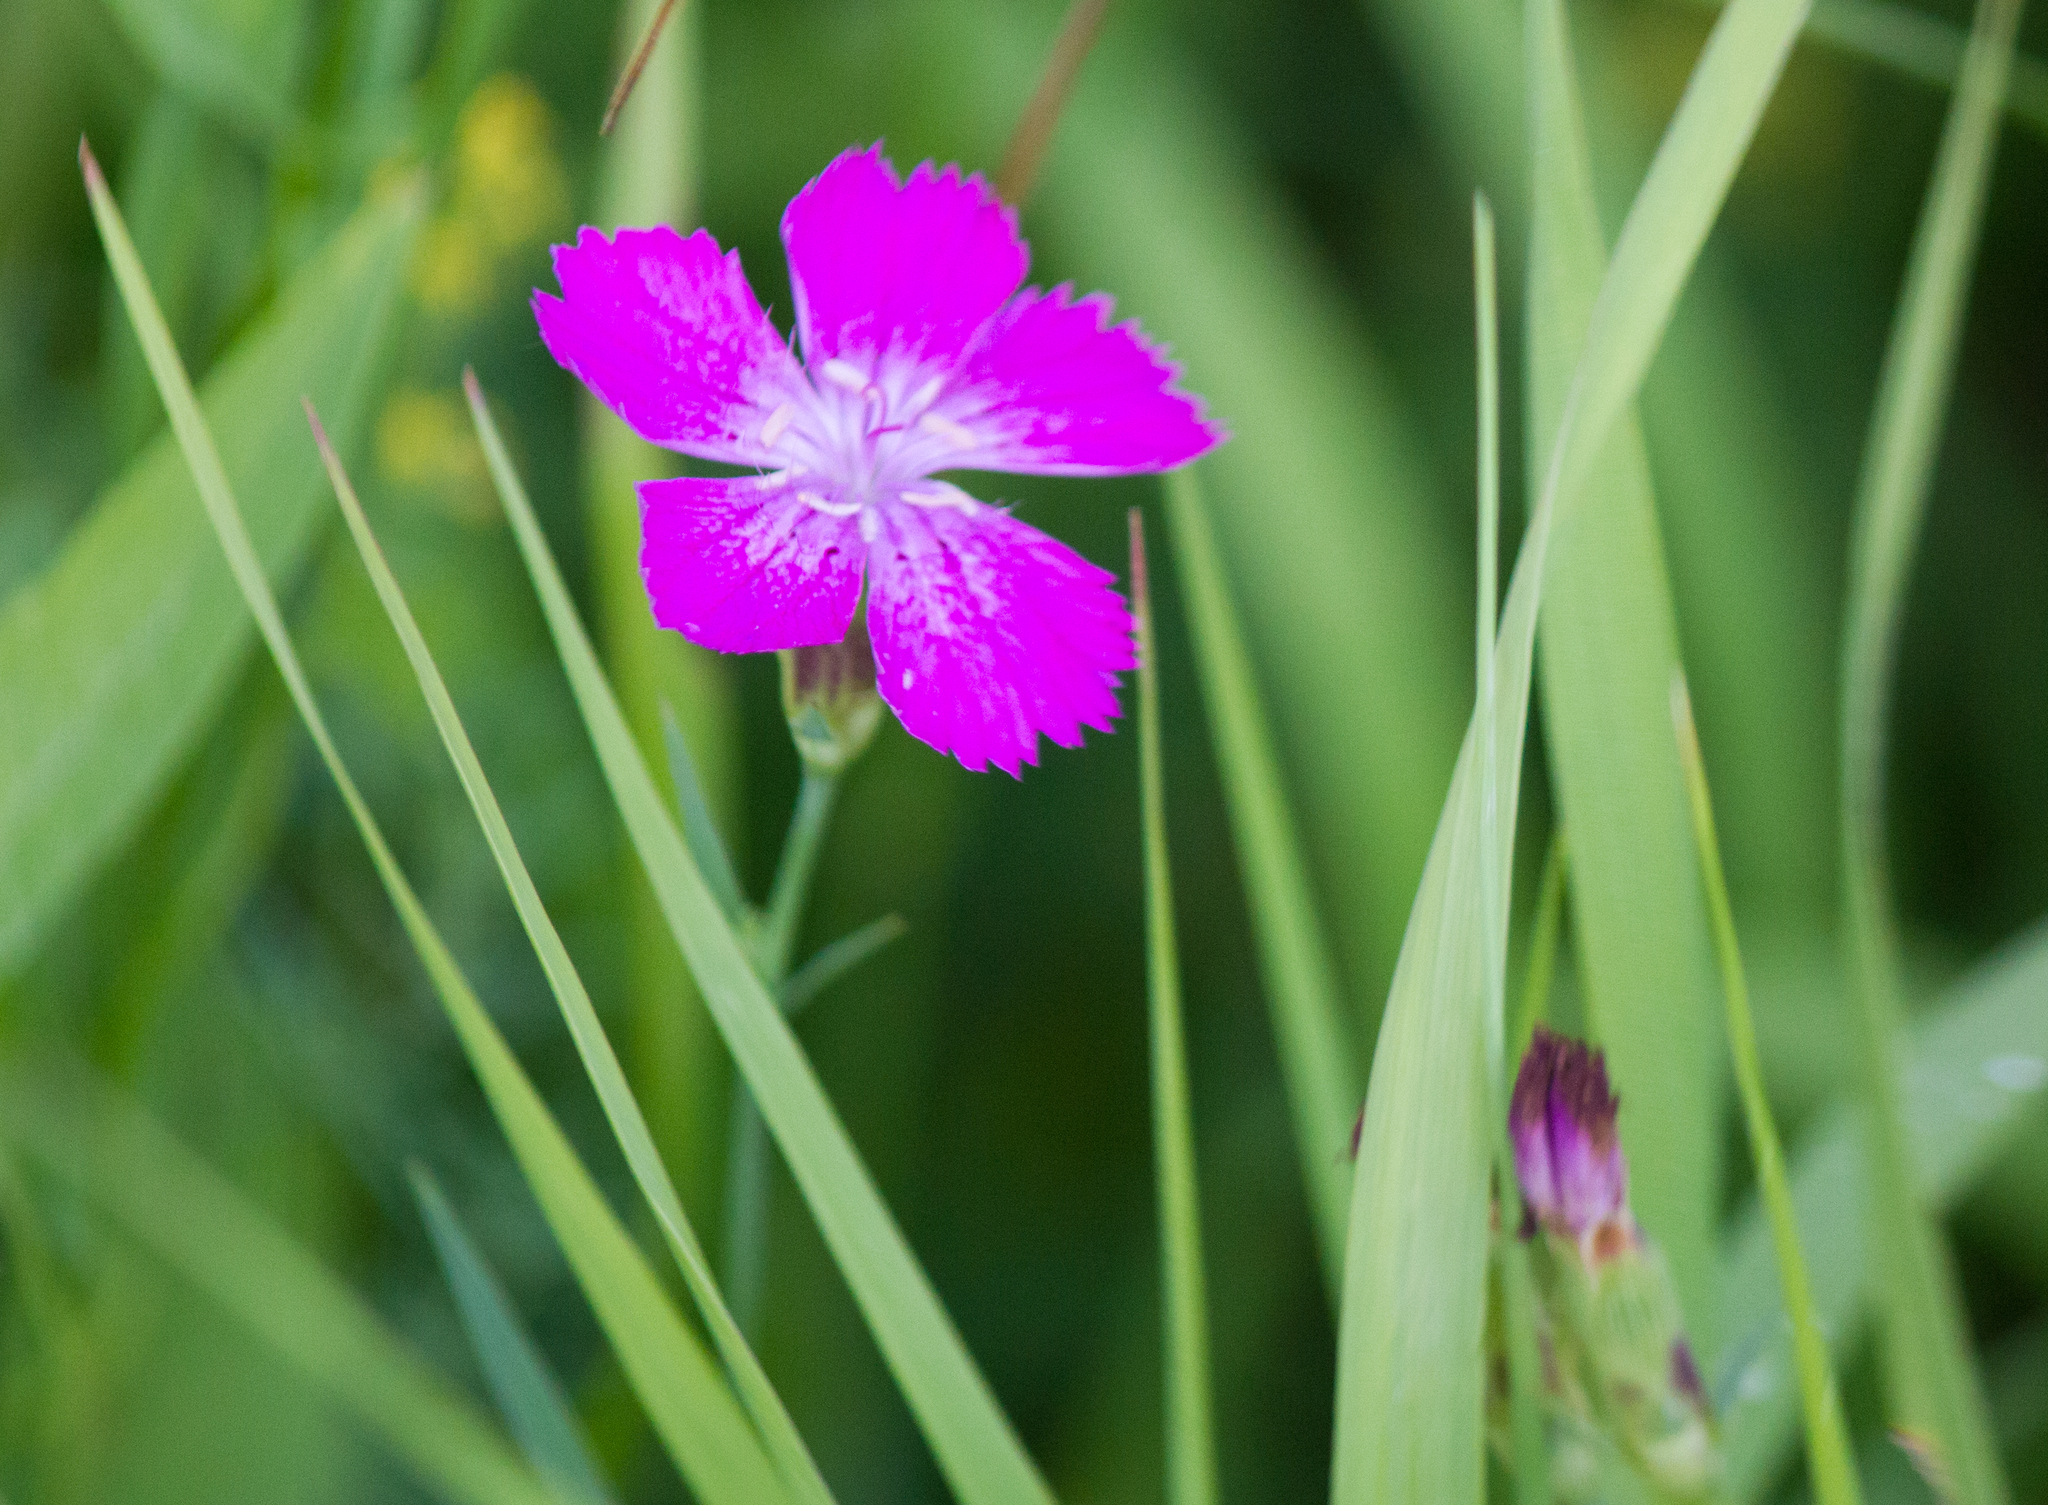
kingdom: Plantae
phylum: Tracheophyta
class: Magnoliopsida
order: Caryophyllales
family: Caryophyllaceae
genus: Dianthus
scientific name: Dianthus chinensis
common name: Rainbow pink
